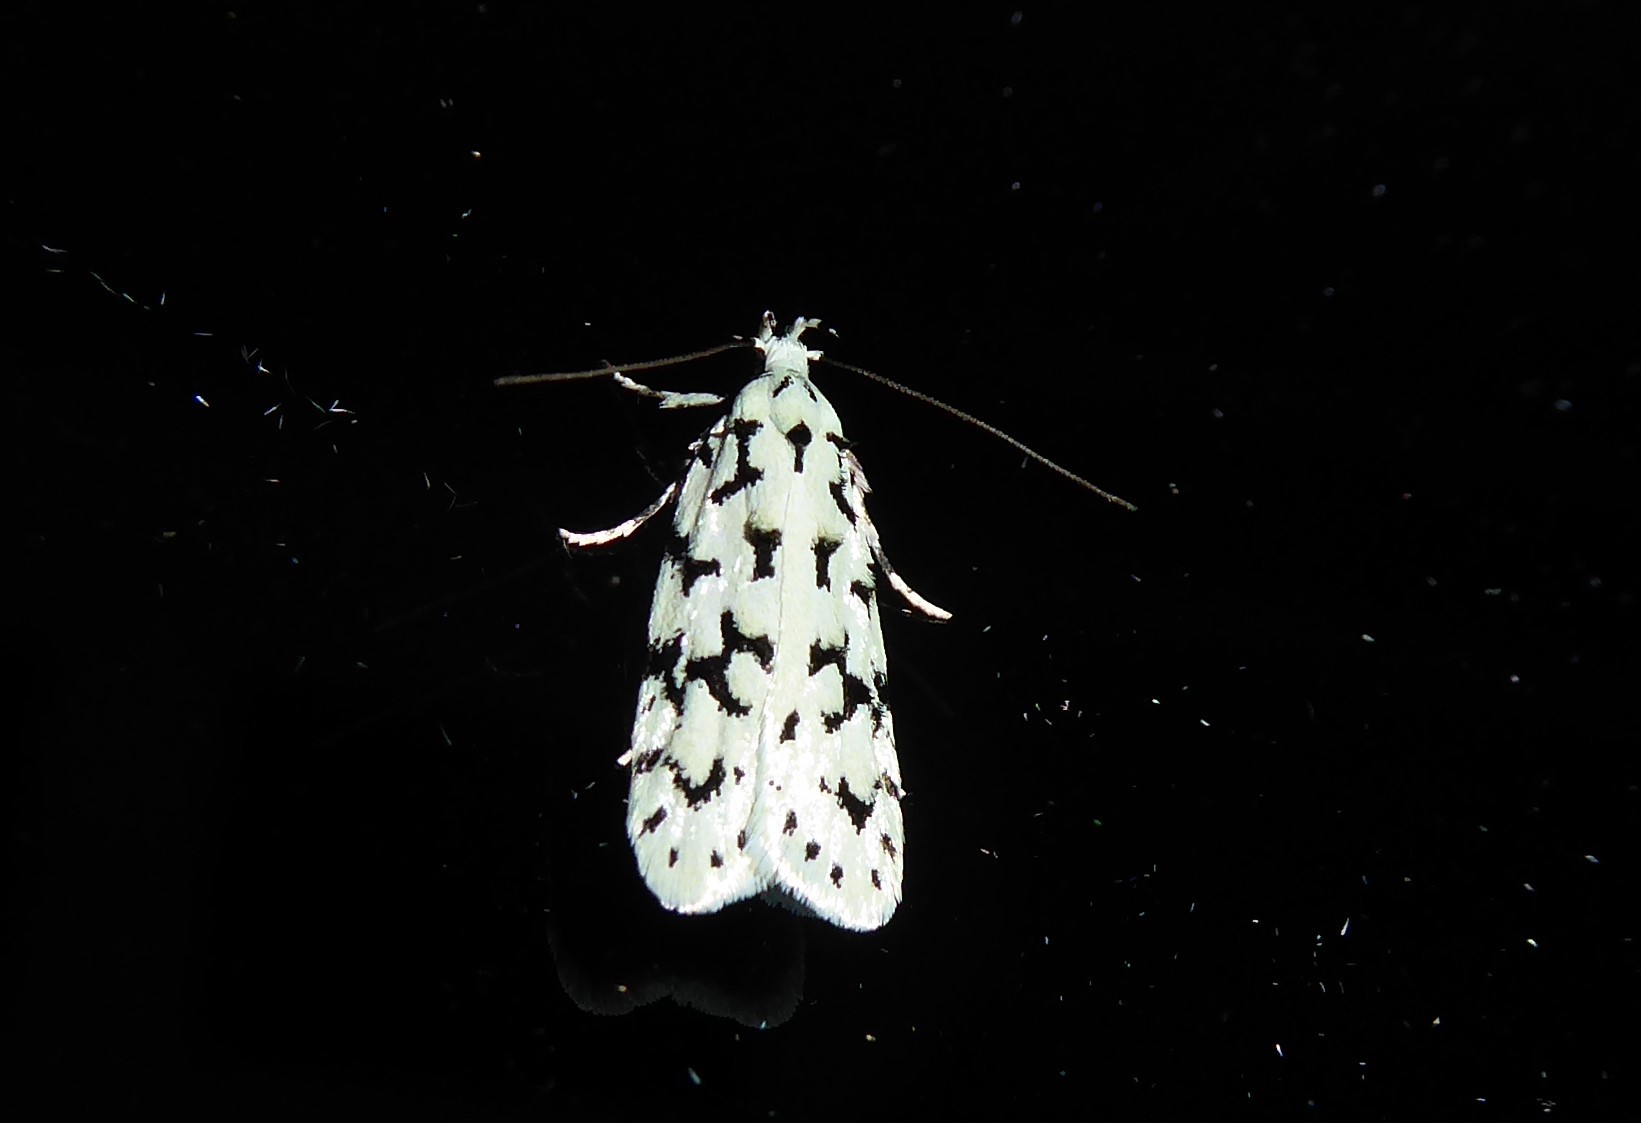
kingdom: Animalia
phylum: Arthropoda
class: Insecta
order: Lepidoptera
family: Oecophoridae
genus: Izatha
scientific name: Izatha huttoni
